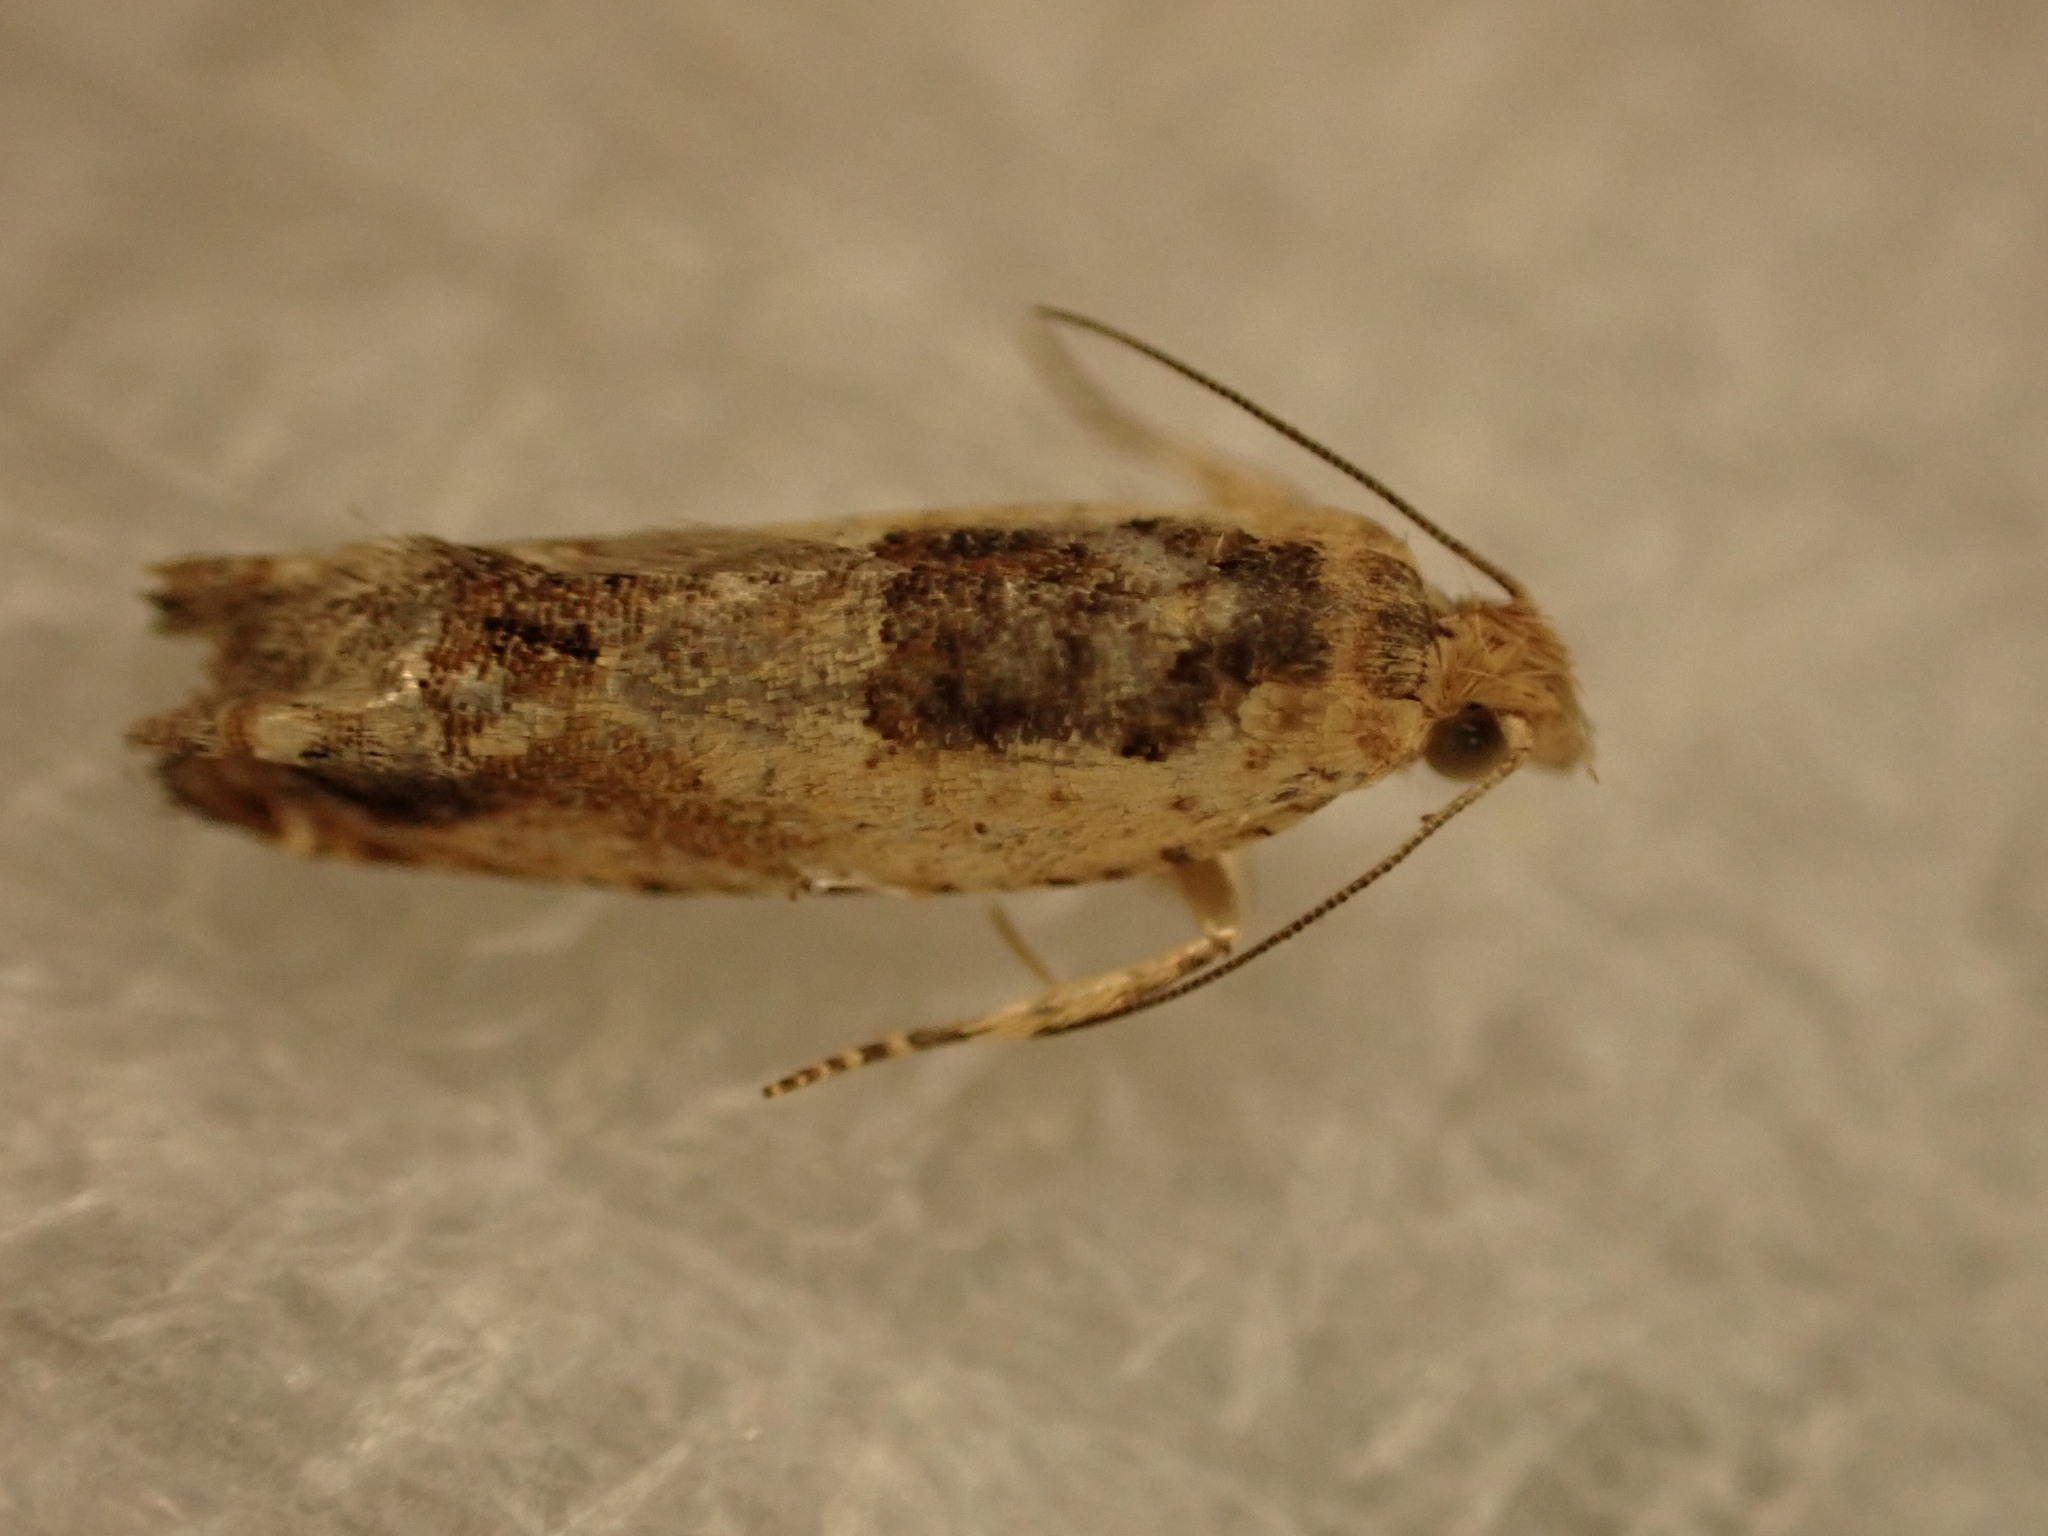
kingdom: Animalia
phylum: Arthropoda
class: Insecta
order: Lepidoptera
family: Tortricidae
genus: Crocidosema
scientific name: Crocidosema plebejana
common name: Southern bell
